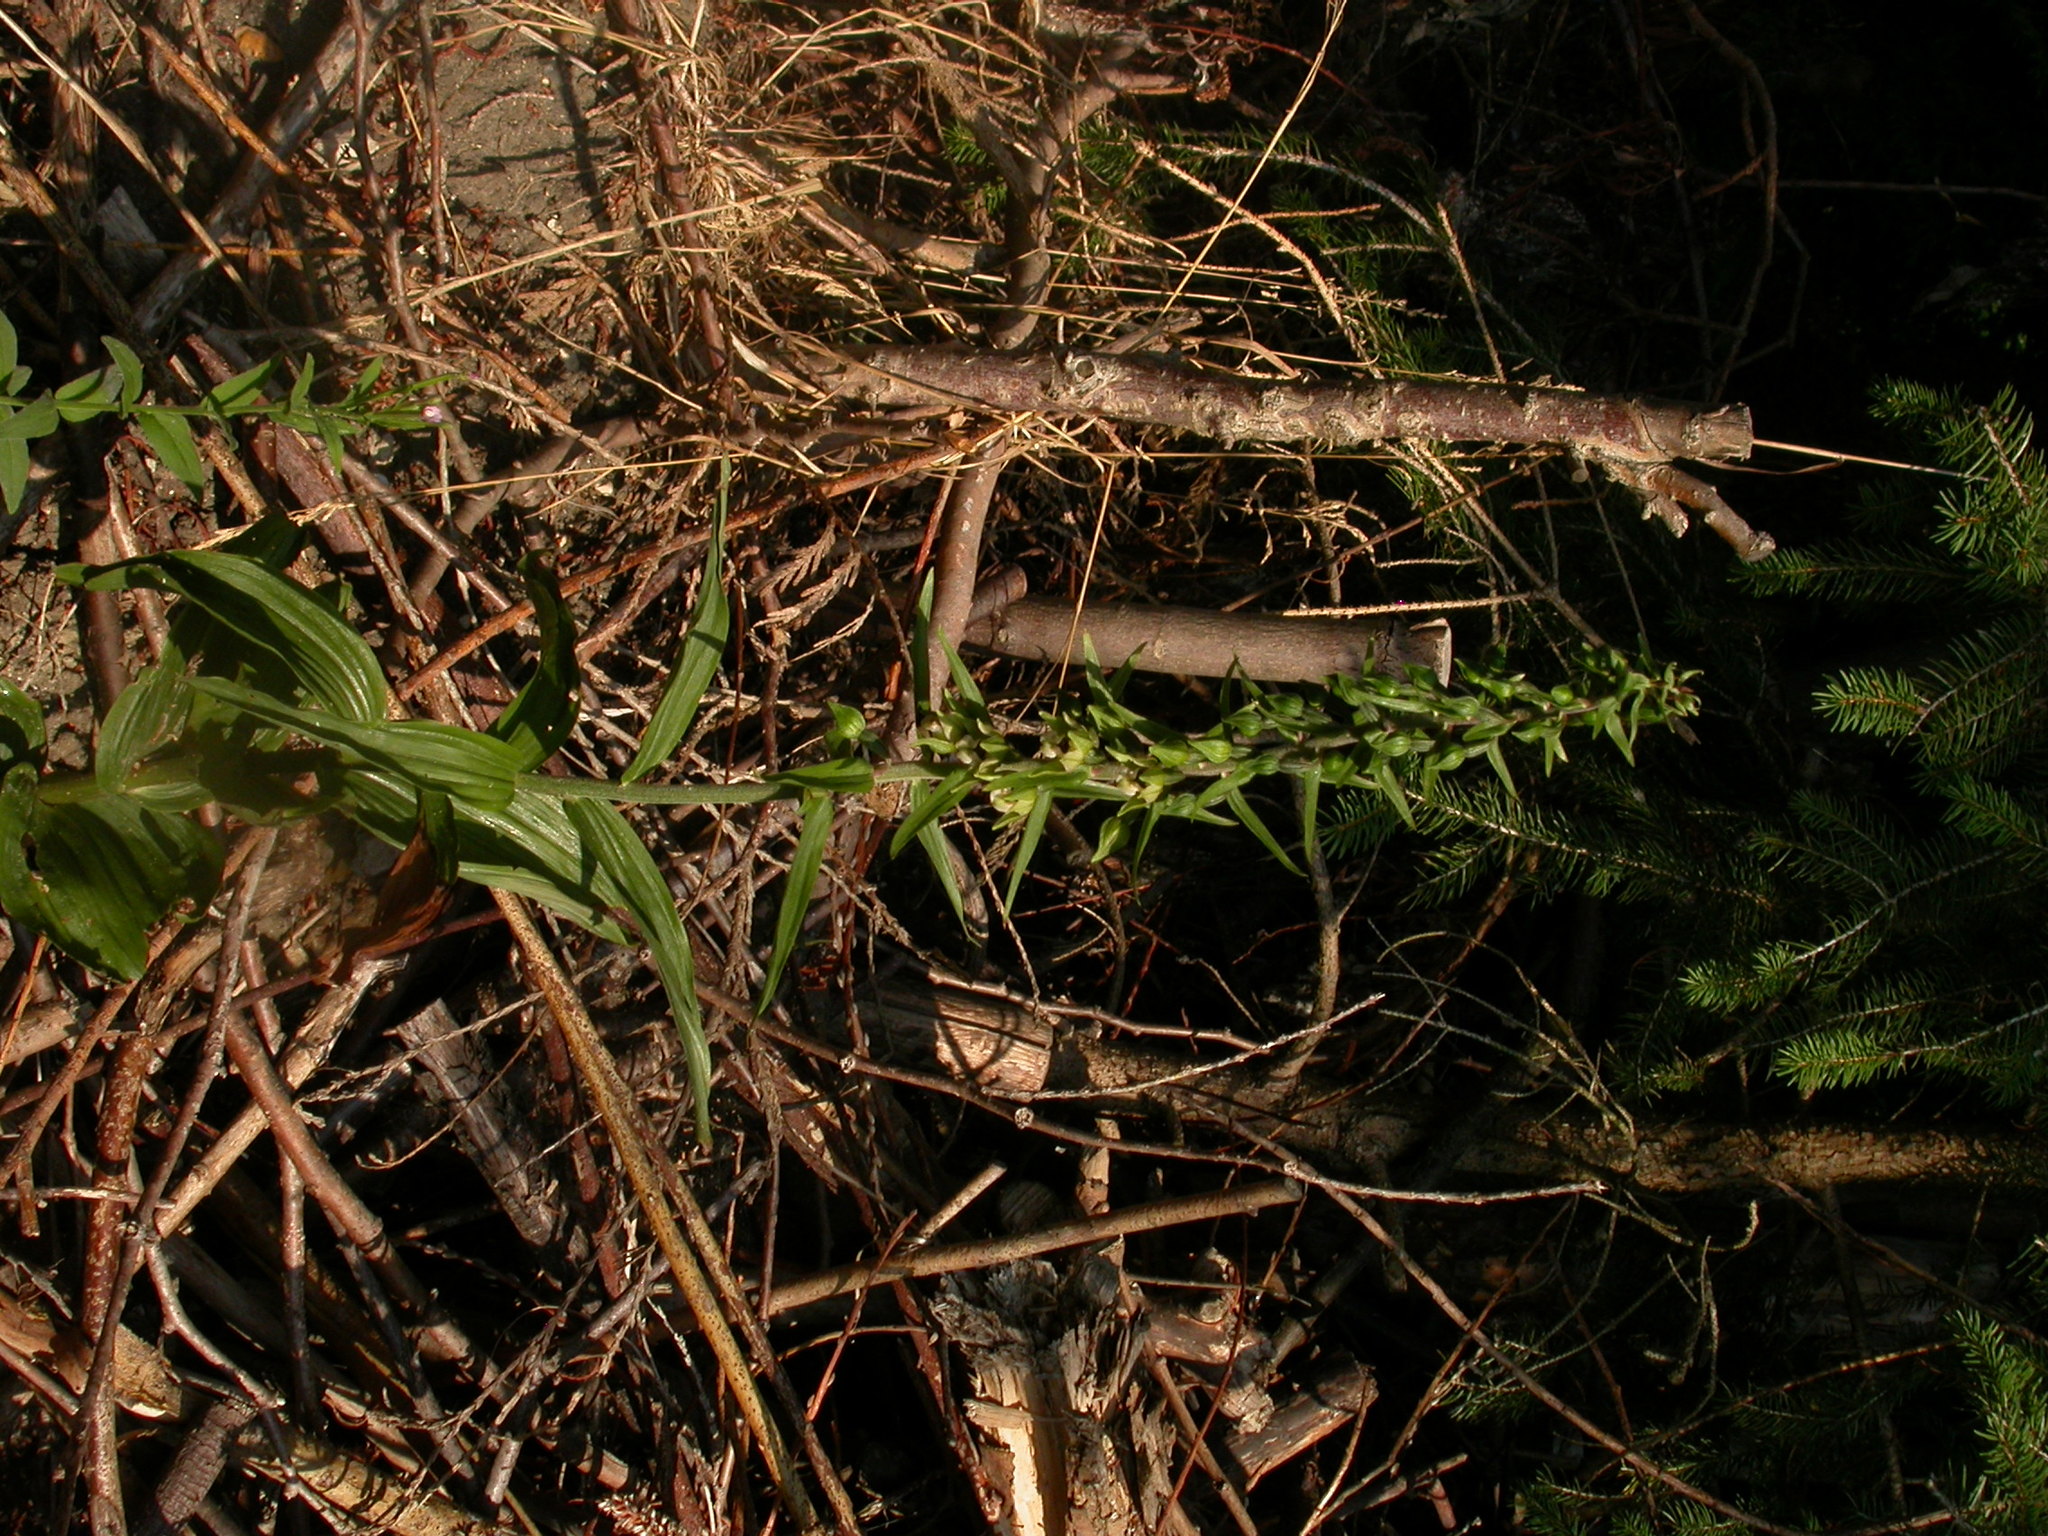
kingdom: Plantae
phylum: Tracheophyta
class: Liliopsida
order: Asparagales
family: Orchidaceae
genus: Epipactis
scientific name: Epipactis helleborine
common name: Broad-leaved helleborine
